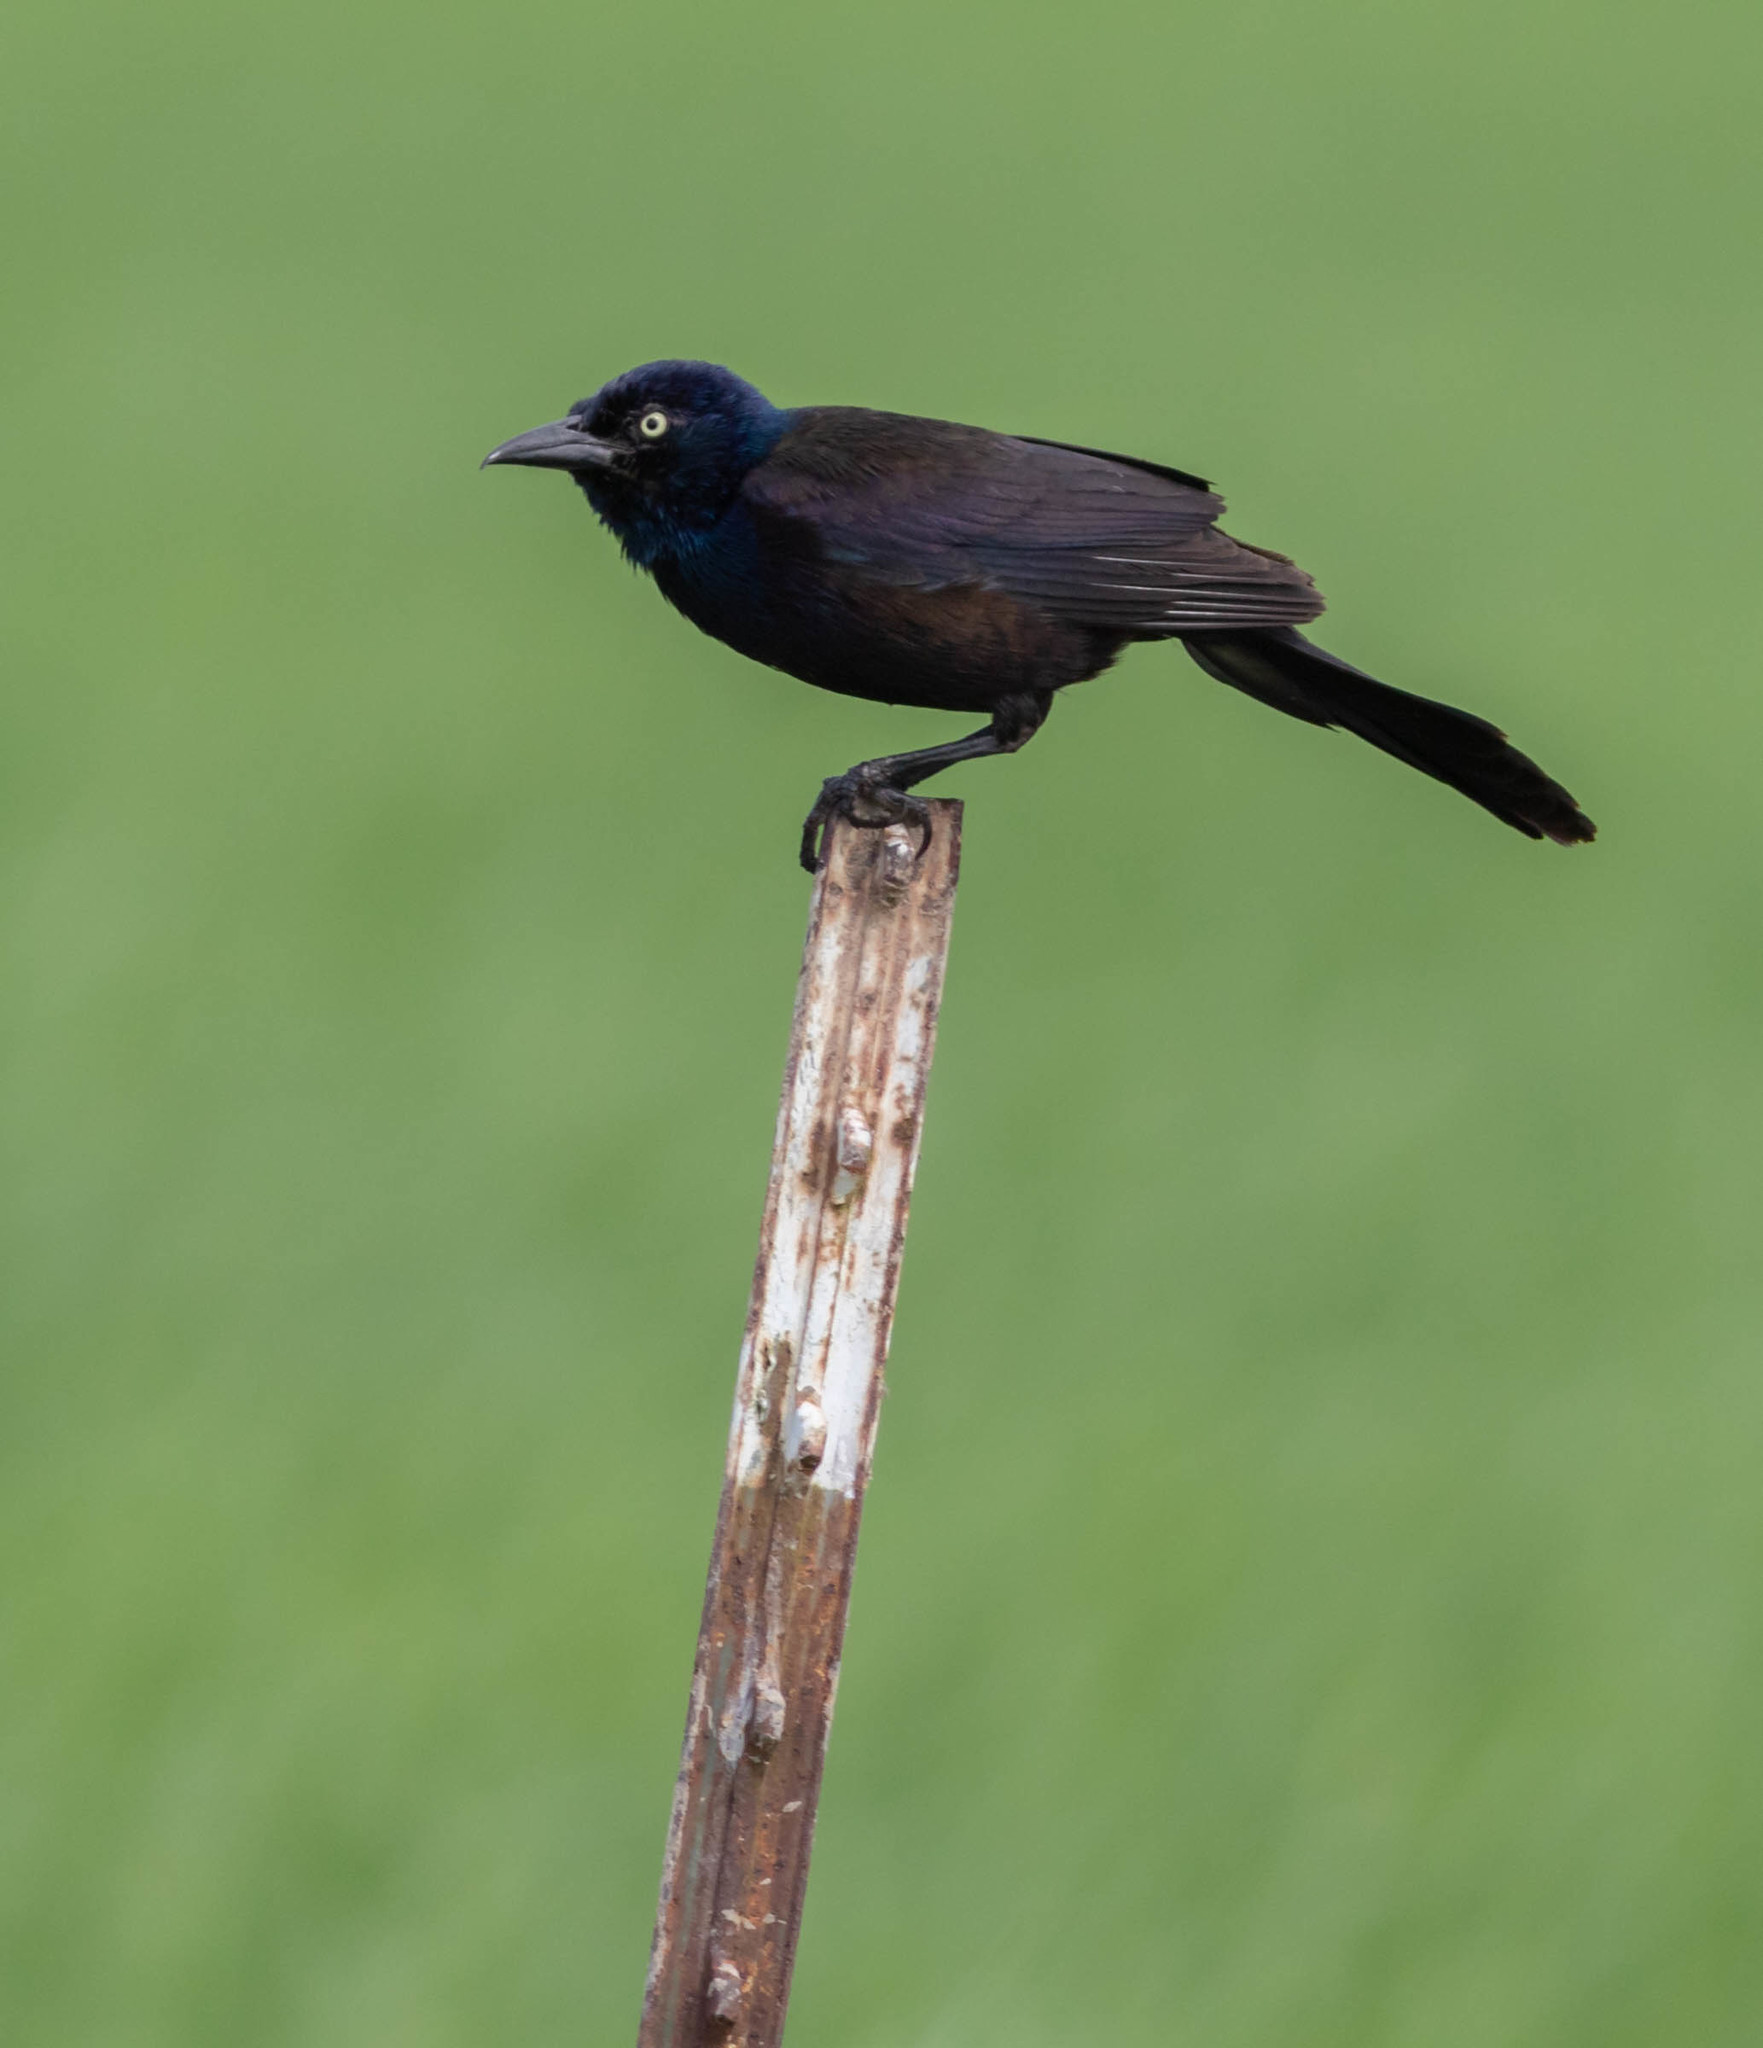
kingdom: Animalia
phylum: Chordata
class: Aves
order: Passeriformes
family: Icteridae
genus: Quiscalus
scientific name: Quiscalus quiscula
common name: Common grackle
